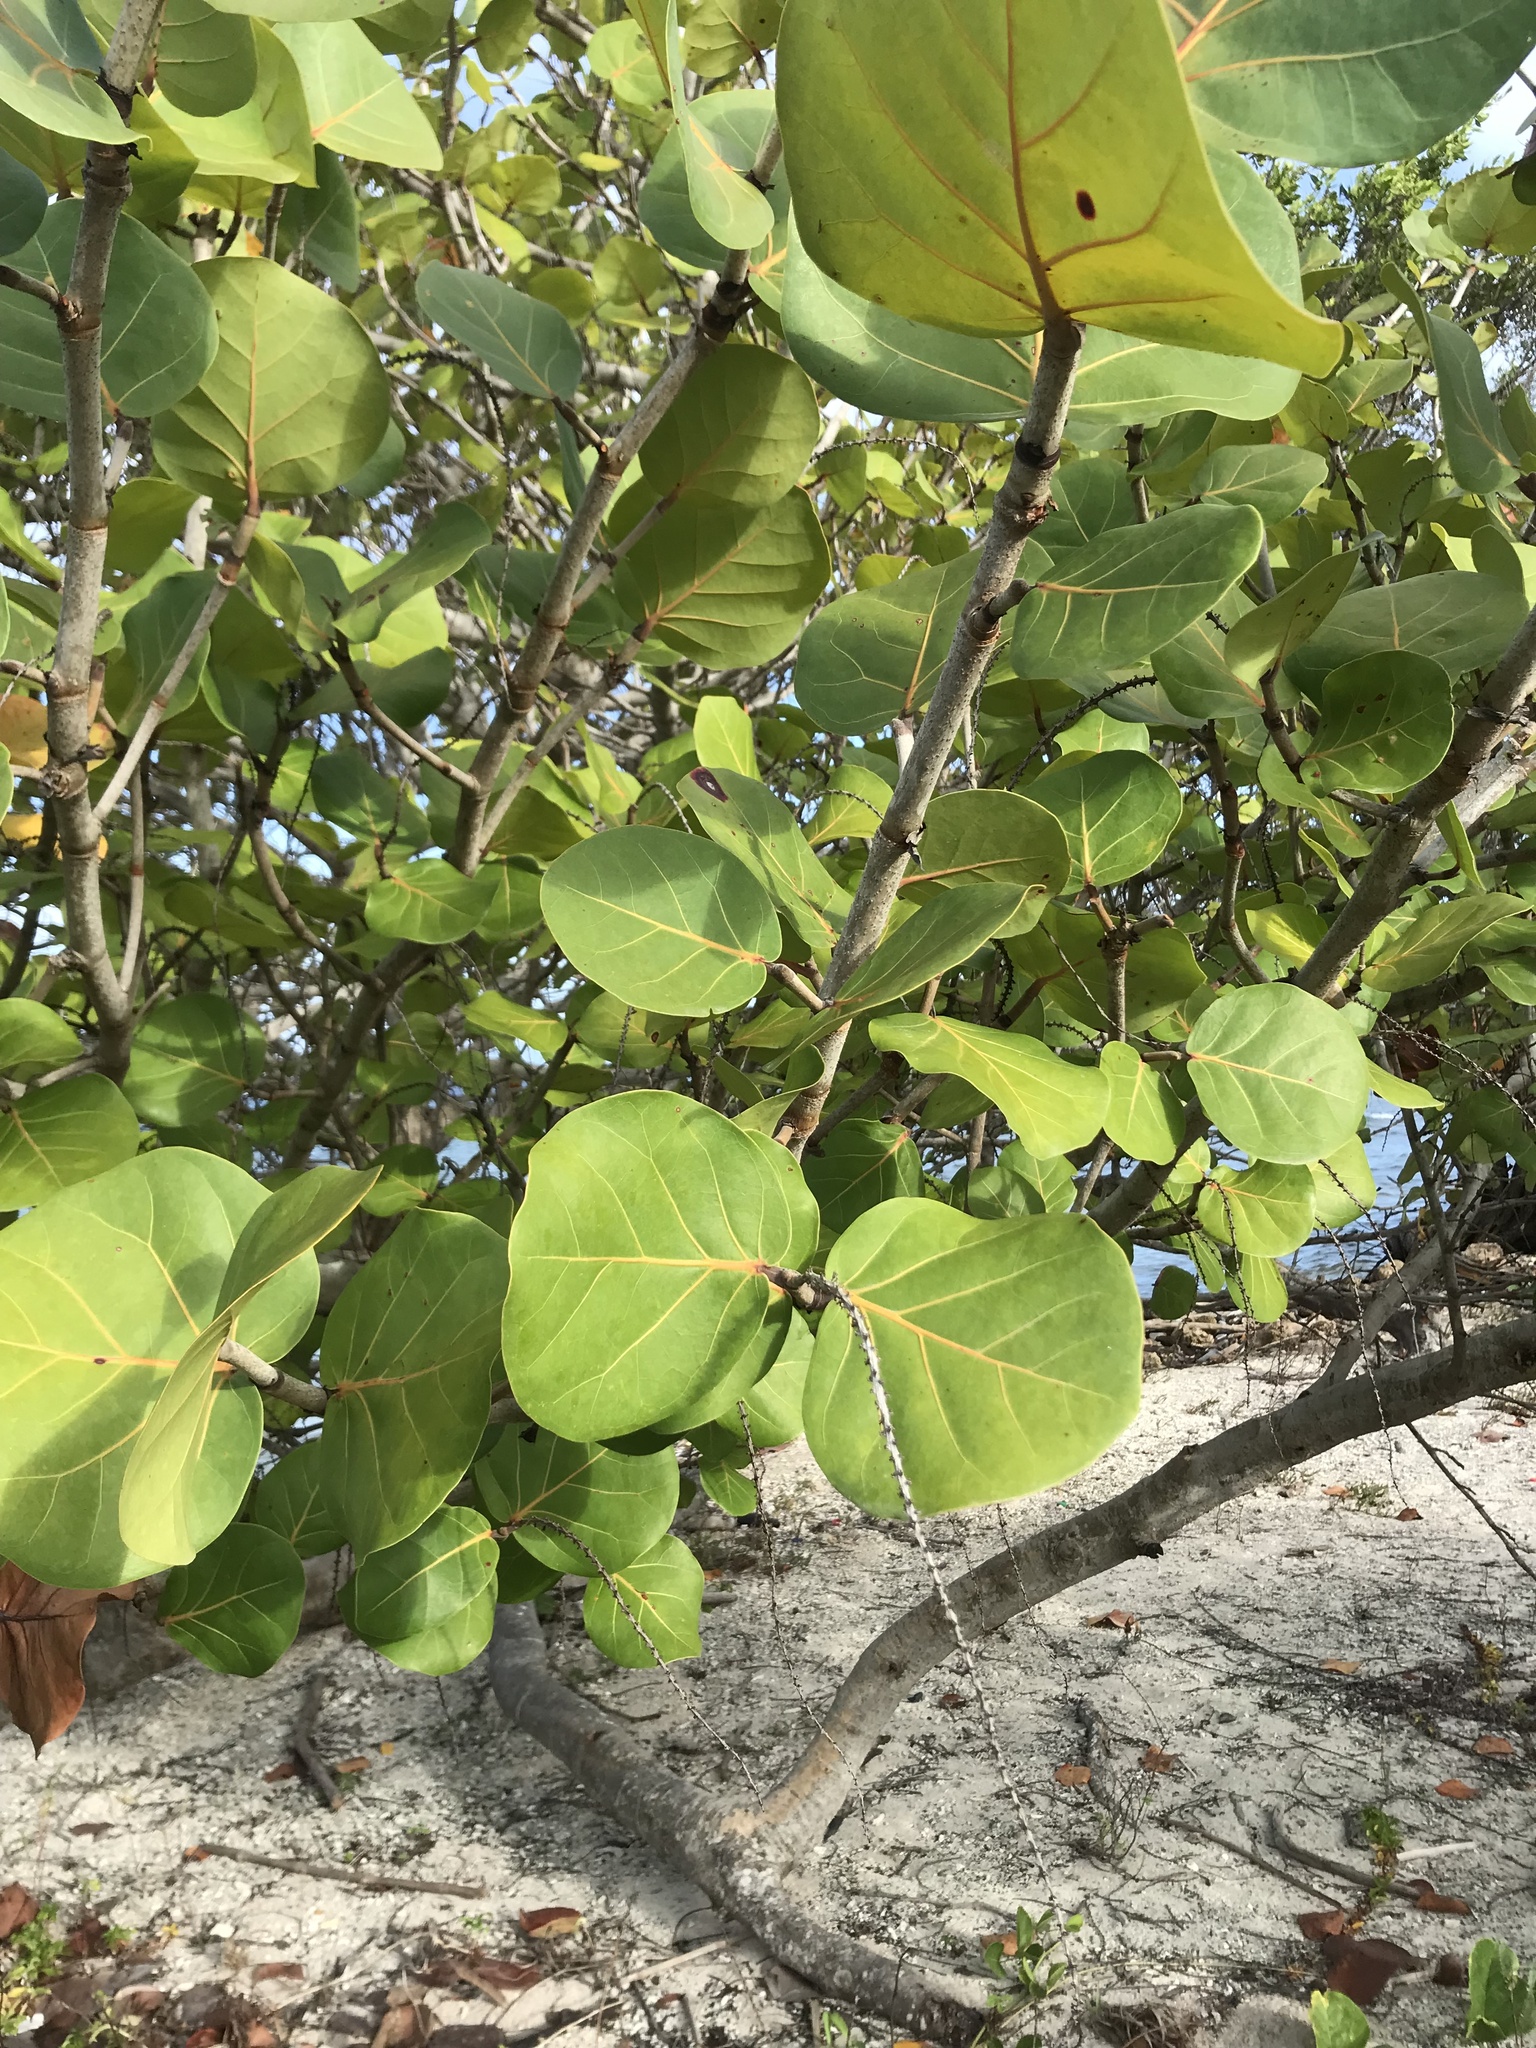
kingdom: Plantae
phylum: Tracheophyta
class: Magnoliopsida
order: Caryophyllales
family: Polygonaceae
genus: Coccoloba
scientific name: Coccoloba uvifera
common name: Seagrape
